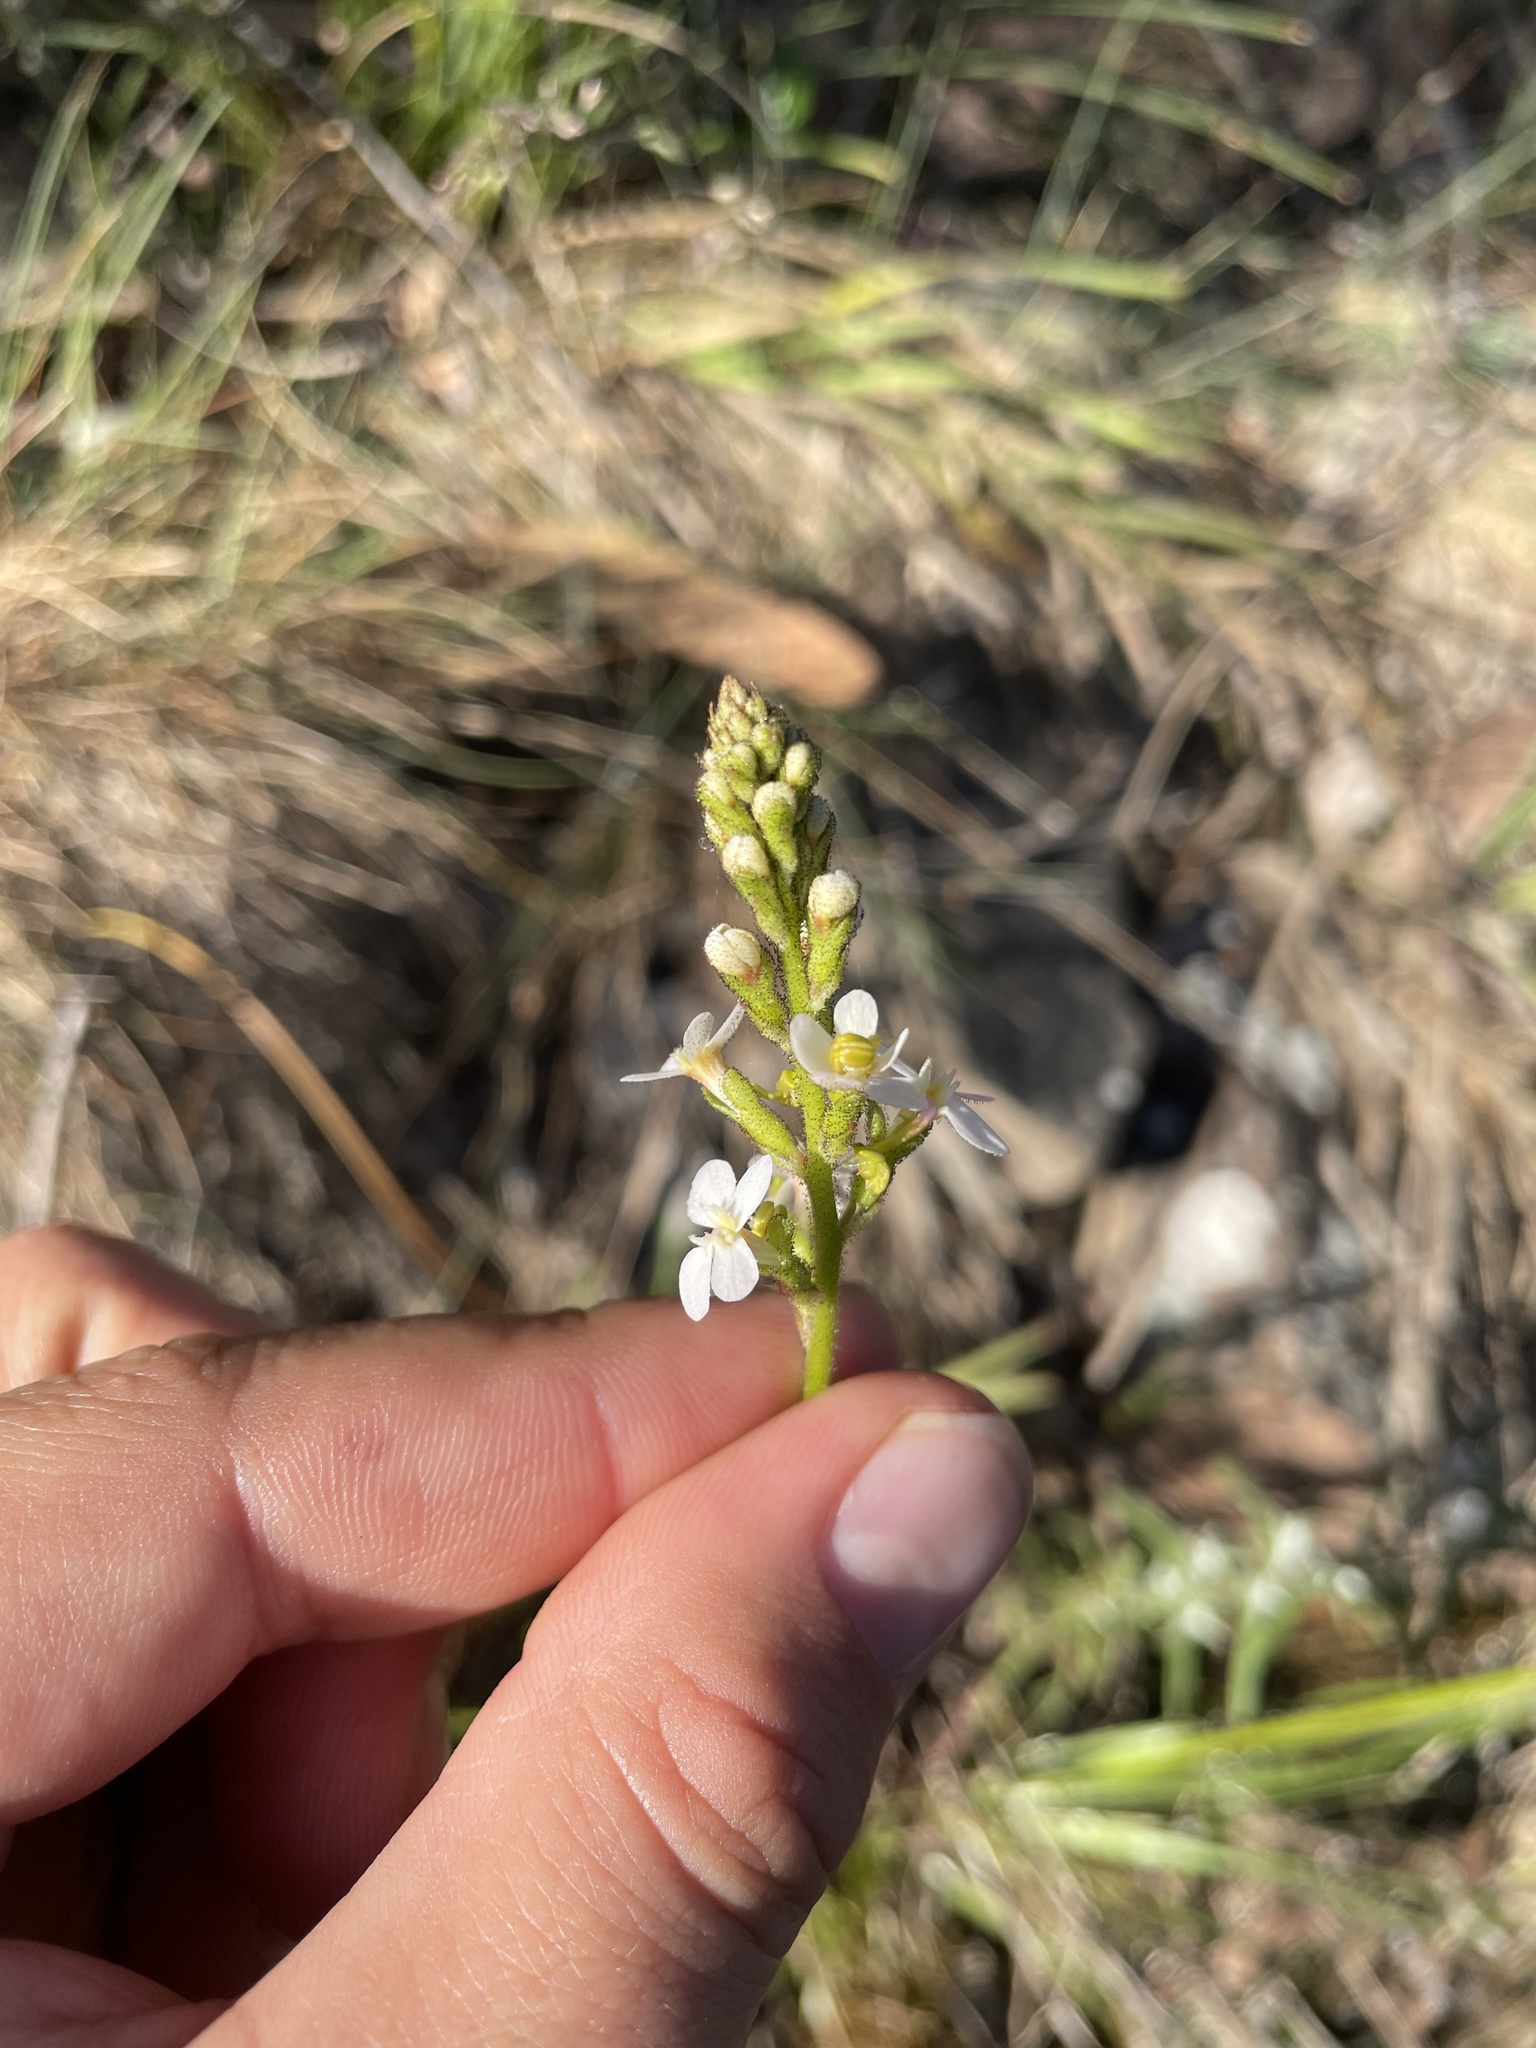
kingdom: Plantae
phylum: Tracheophyta
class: Magnoliopsida
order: Asterales
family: Stylidiaceae
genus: Stylidium
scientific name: Stylidium graminifolium
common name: Grass triggerplant
